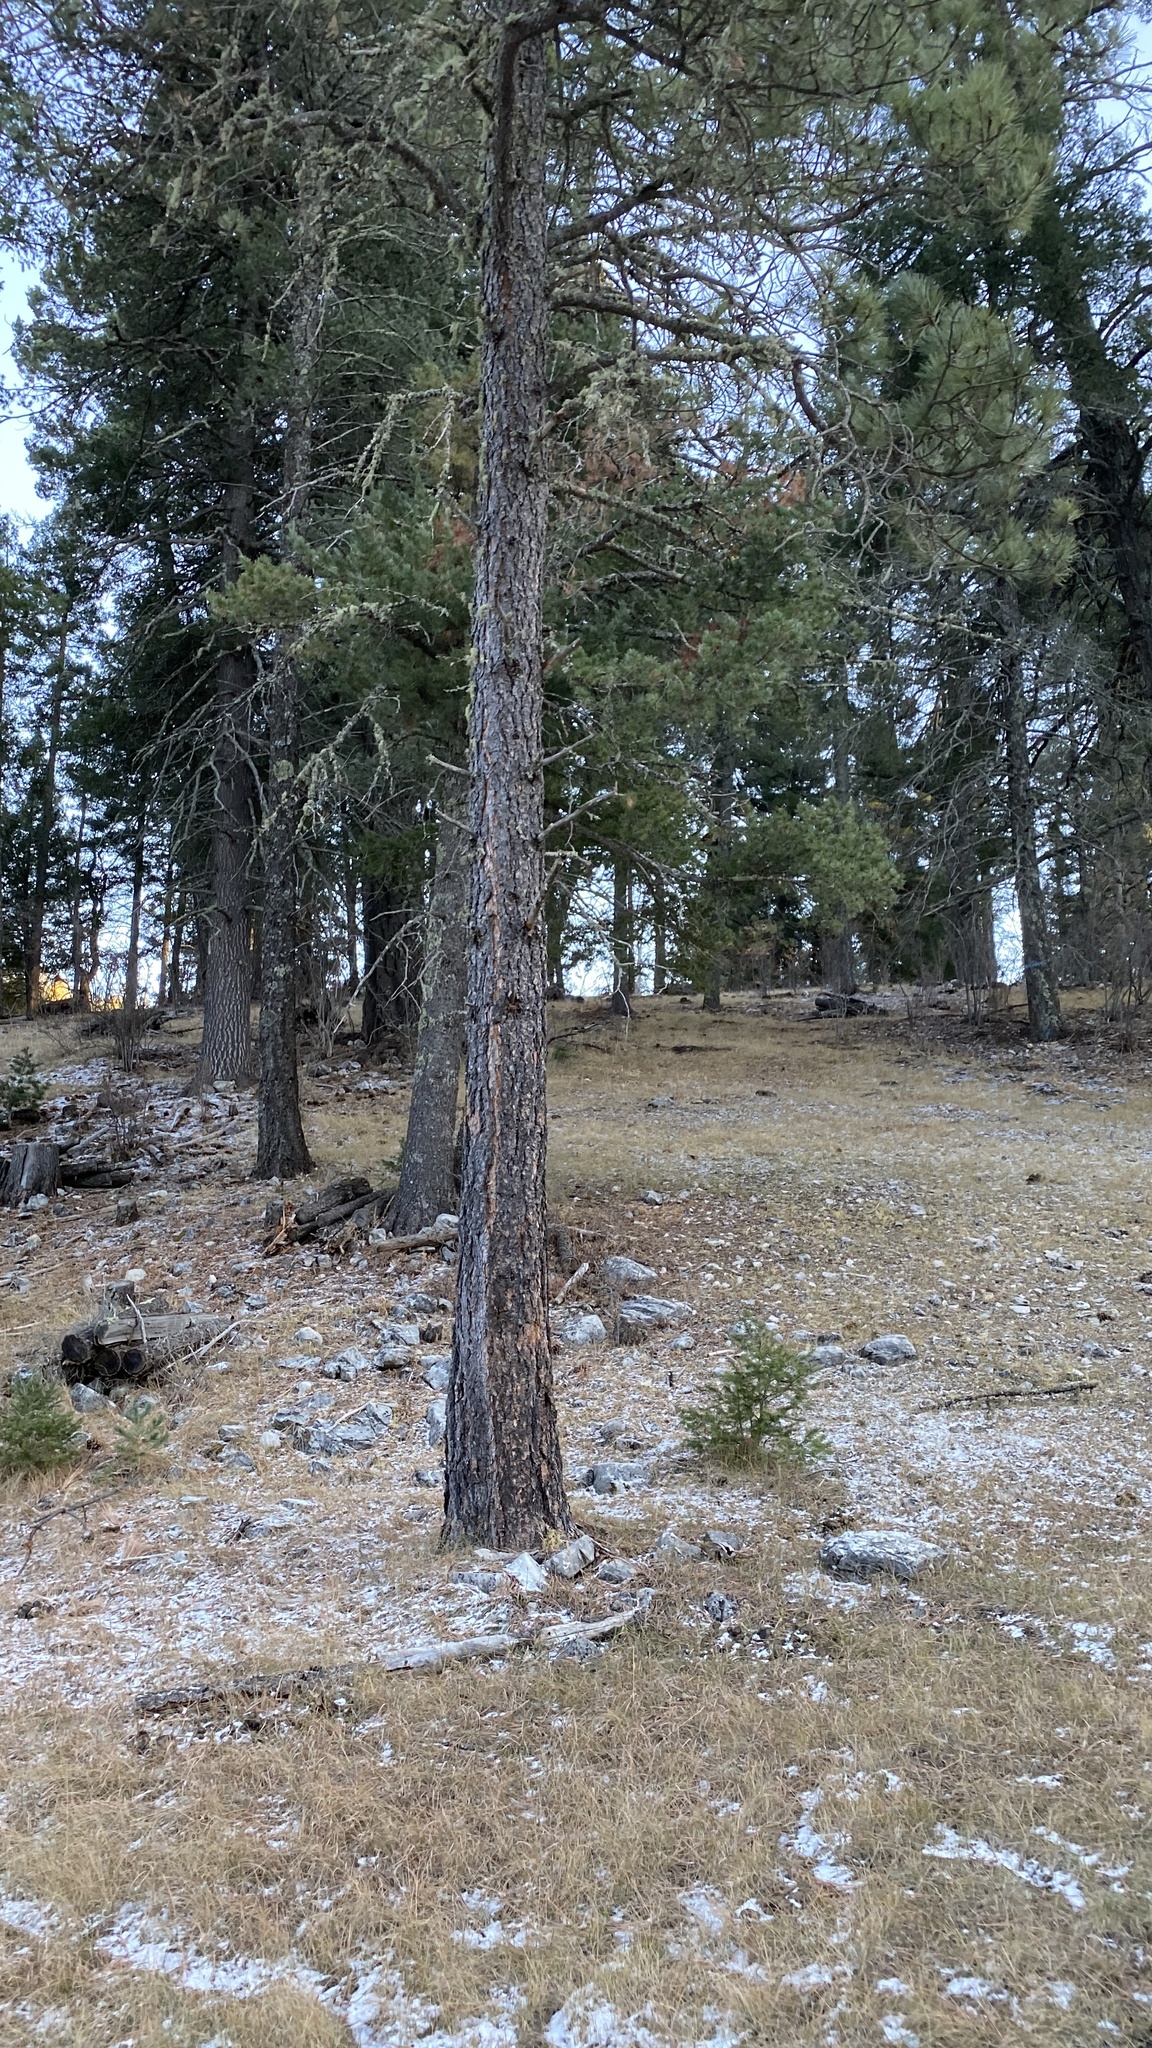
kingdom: Plantae
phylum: Tracheophyta
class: Pinopsida
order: Pinales
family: Pinaceae
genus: Pinus
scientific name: Pinus ponderosa
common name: Western yellow-pine
